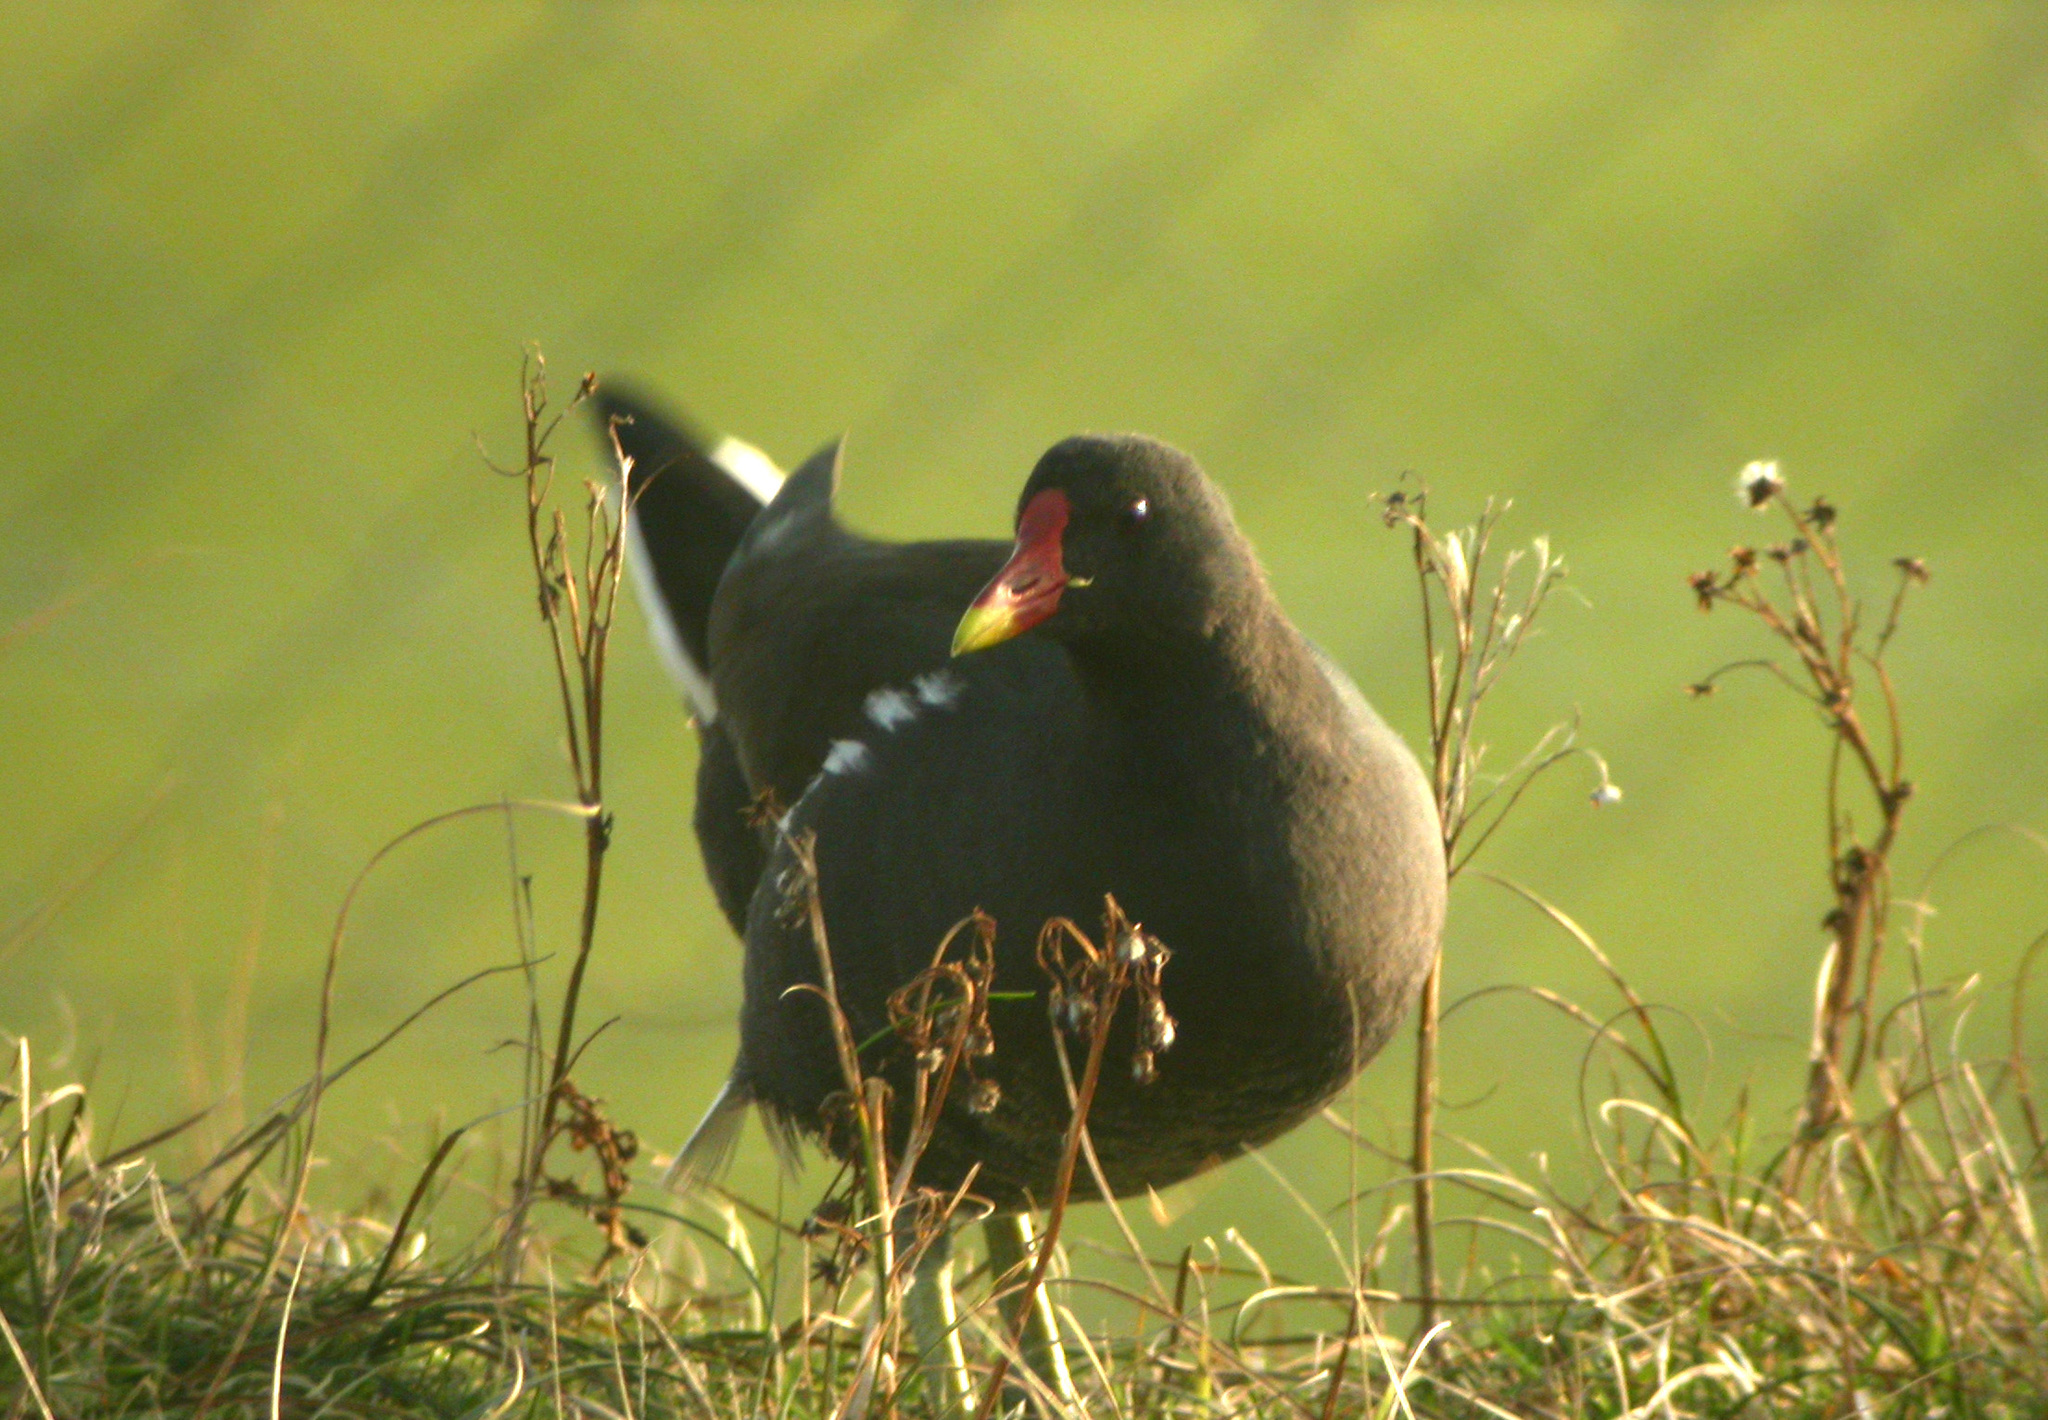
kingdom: Animalia
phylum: Chordata
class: Aves
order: Gruiformes
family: Rallidae
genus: Gallinula
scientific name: Gallinula chloropus
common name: Common moorhen
